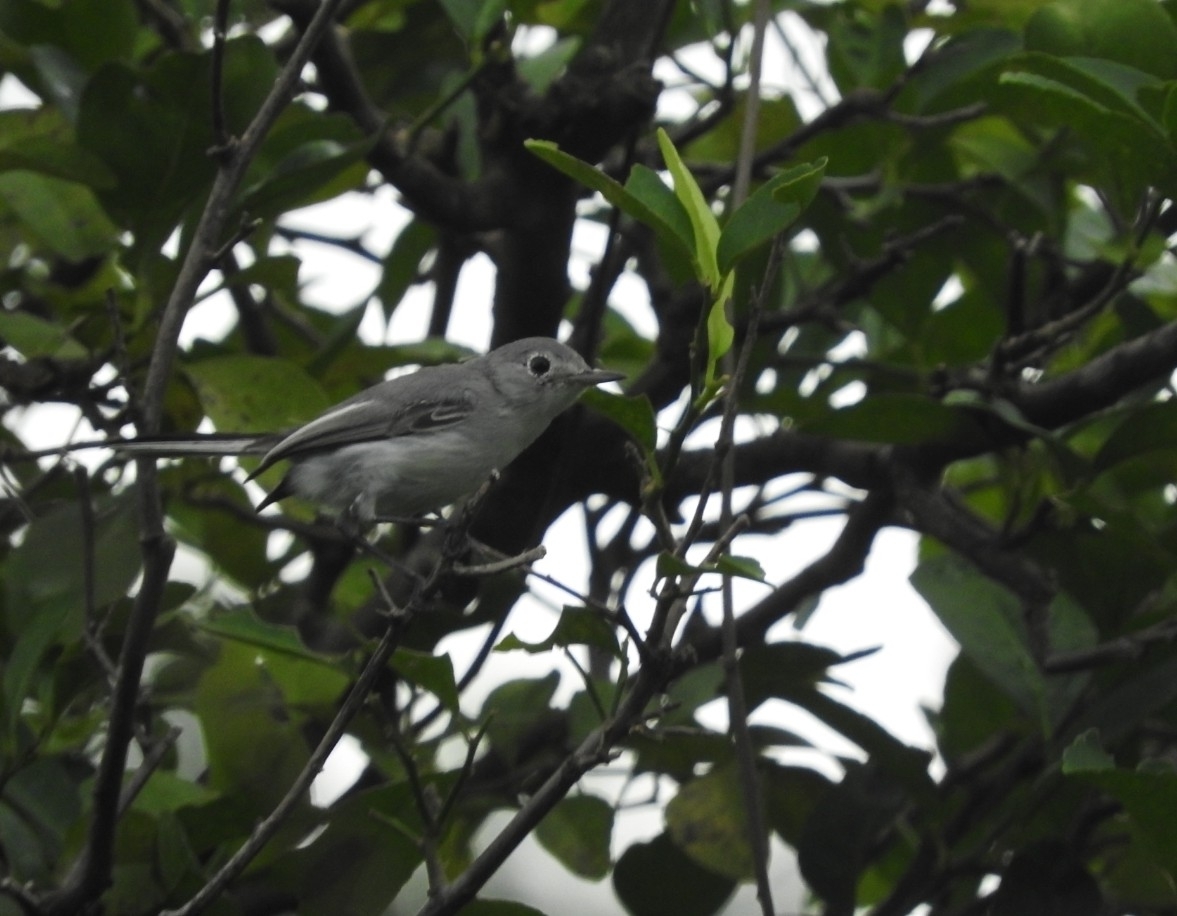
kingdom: Animalia
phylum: Chordata
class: Aves
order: Passeriformes
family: Polioptilidae
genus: Polioptila
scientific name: Polioptila caerulea
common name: Blue-gray gnatcatcher
